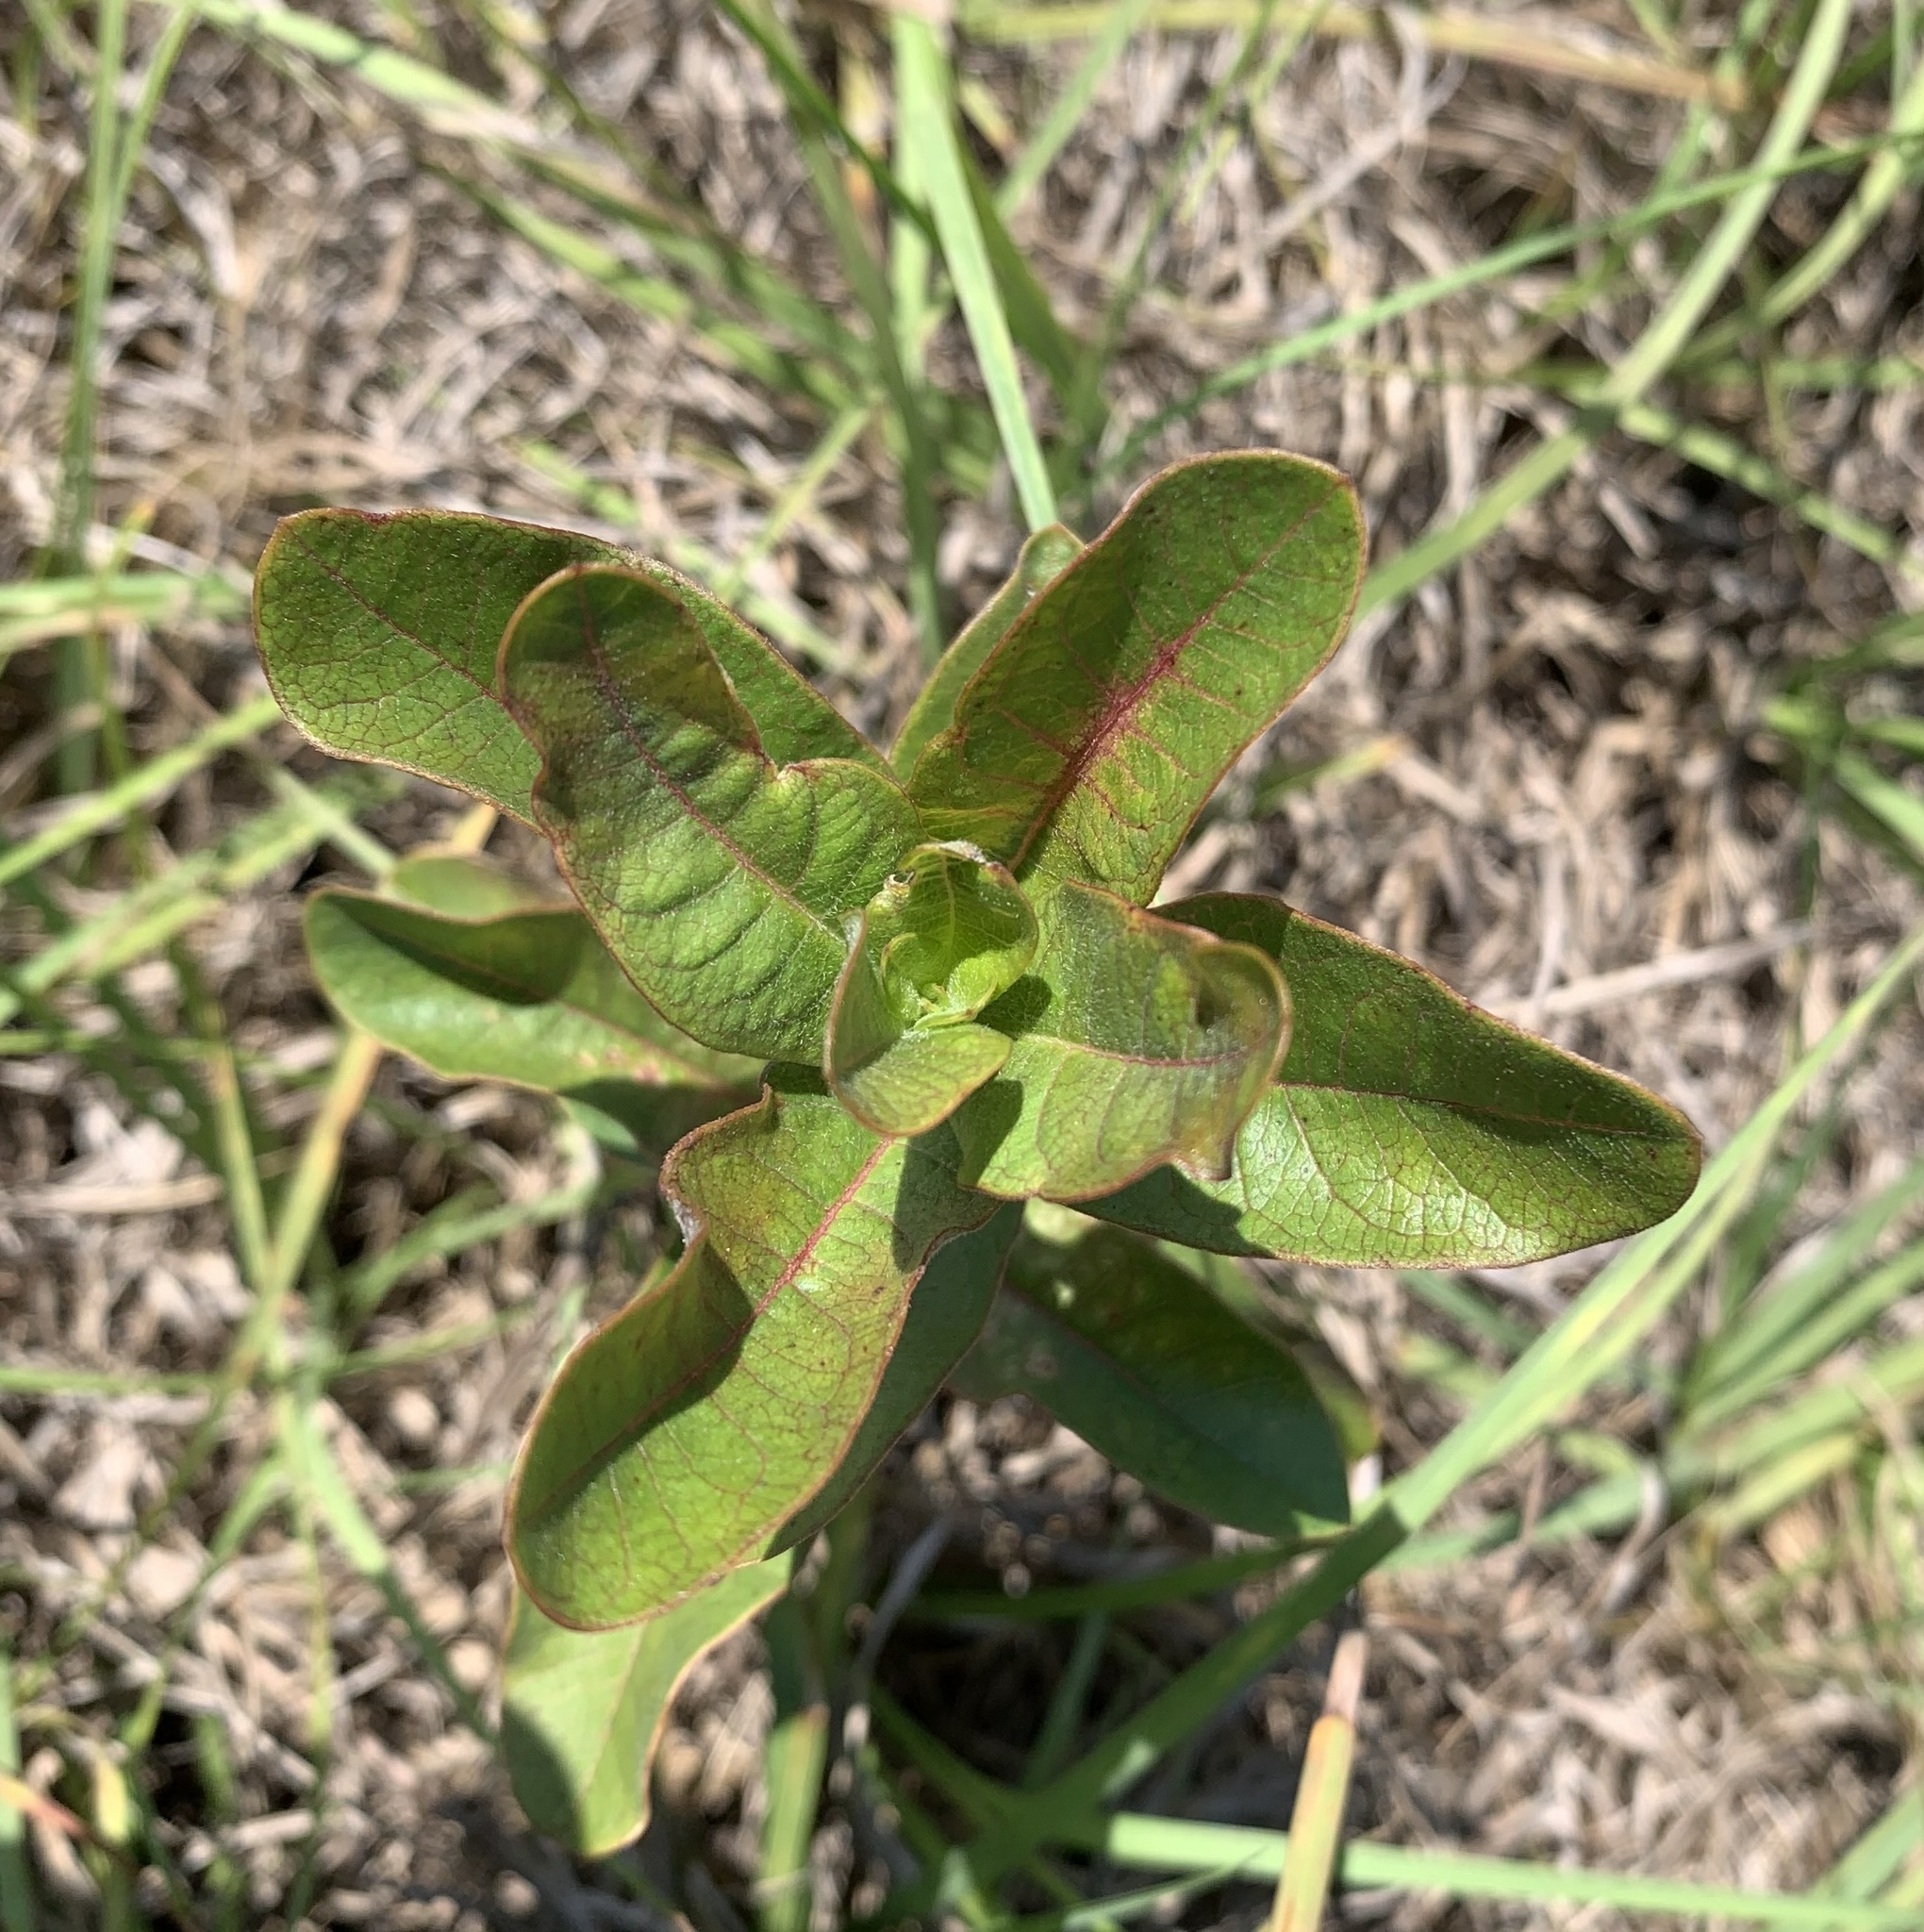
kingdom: Plantae
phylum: Tracheophyta
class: Magnoliopsida
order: Gentianales
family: Apocynaceae
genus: Asclepias
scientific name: Asclepias tomentosa
